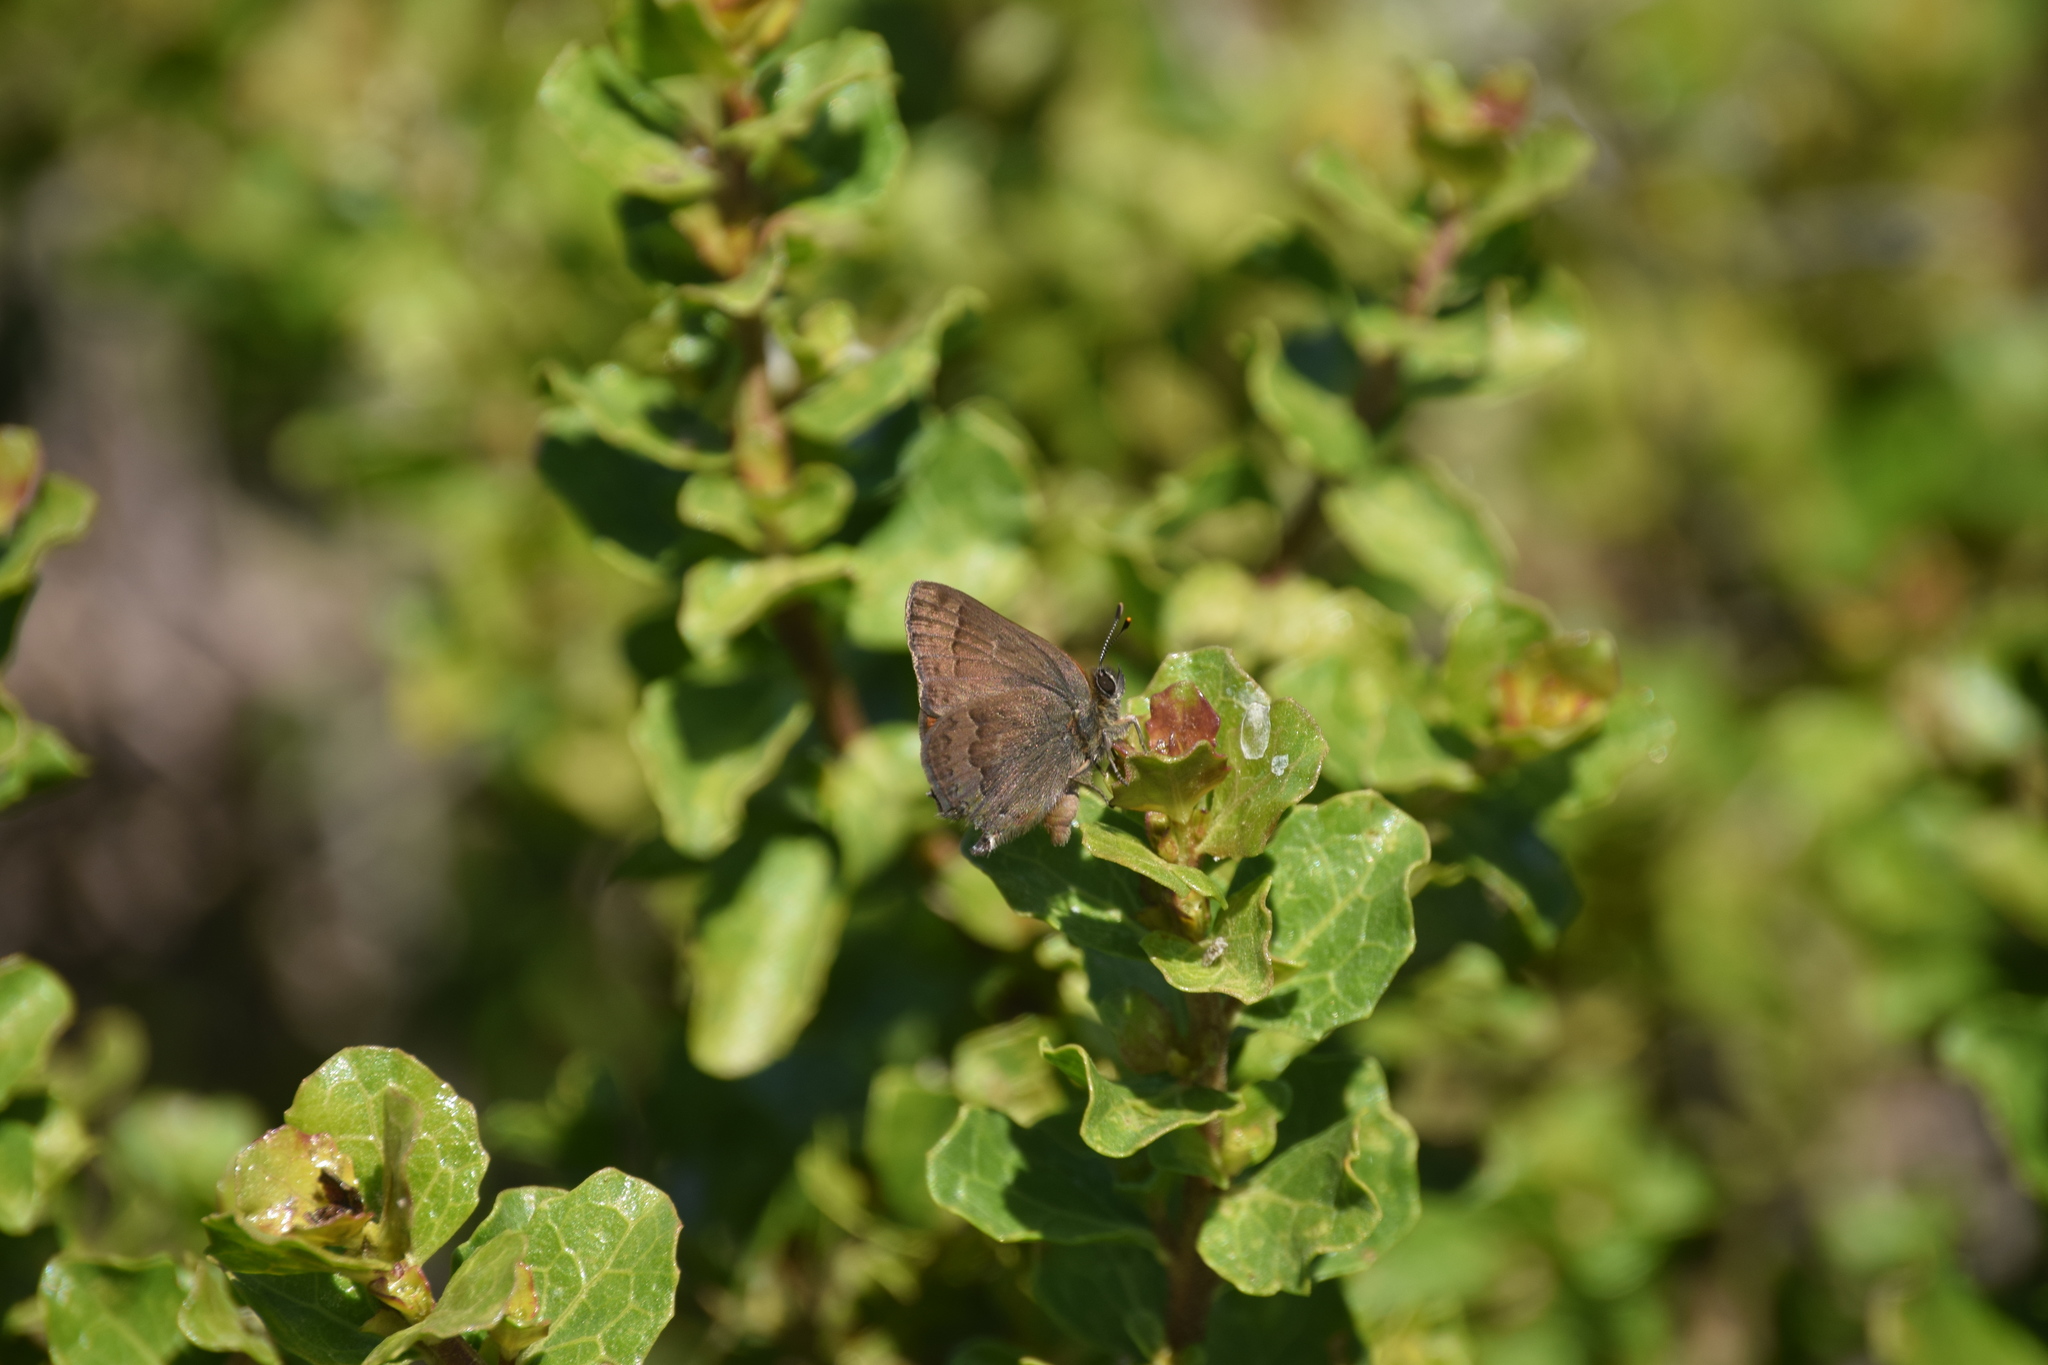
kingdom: Animalia
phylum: Arthropoda
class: Insecta
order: Lepidoptera
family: Lycaenidae
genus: Incisalia
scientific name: Incisalia irioides
